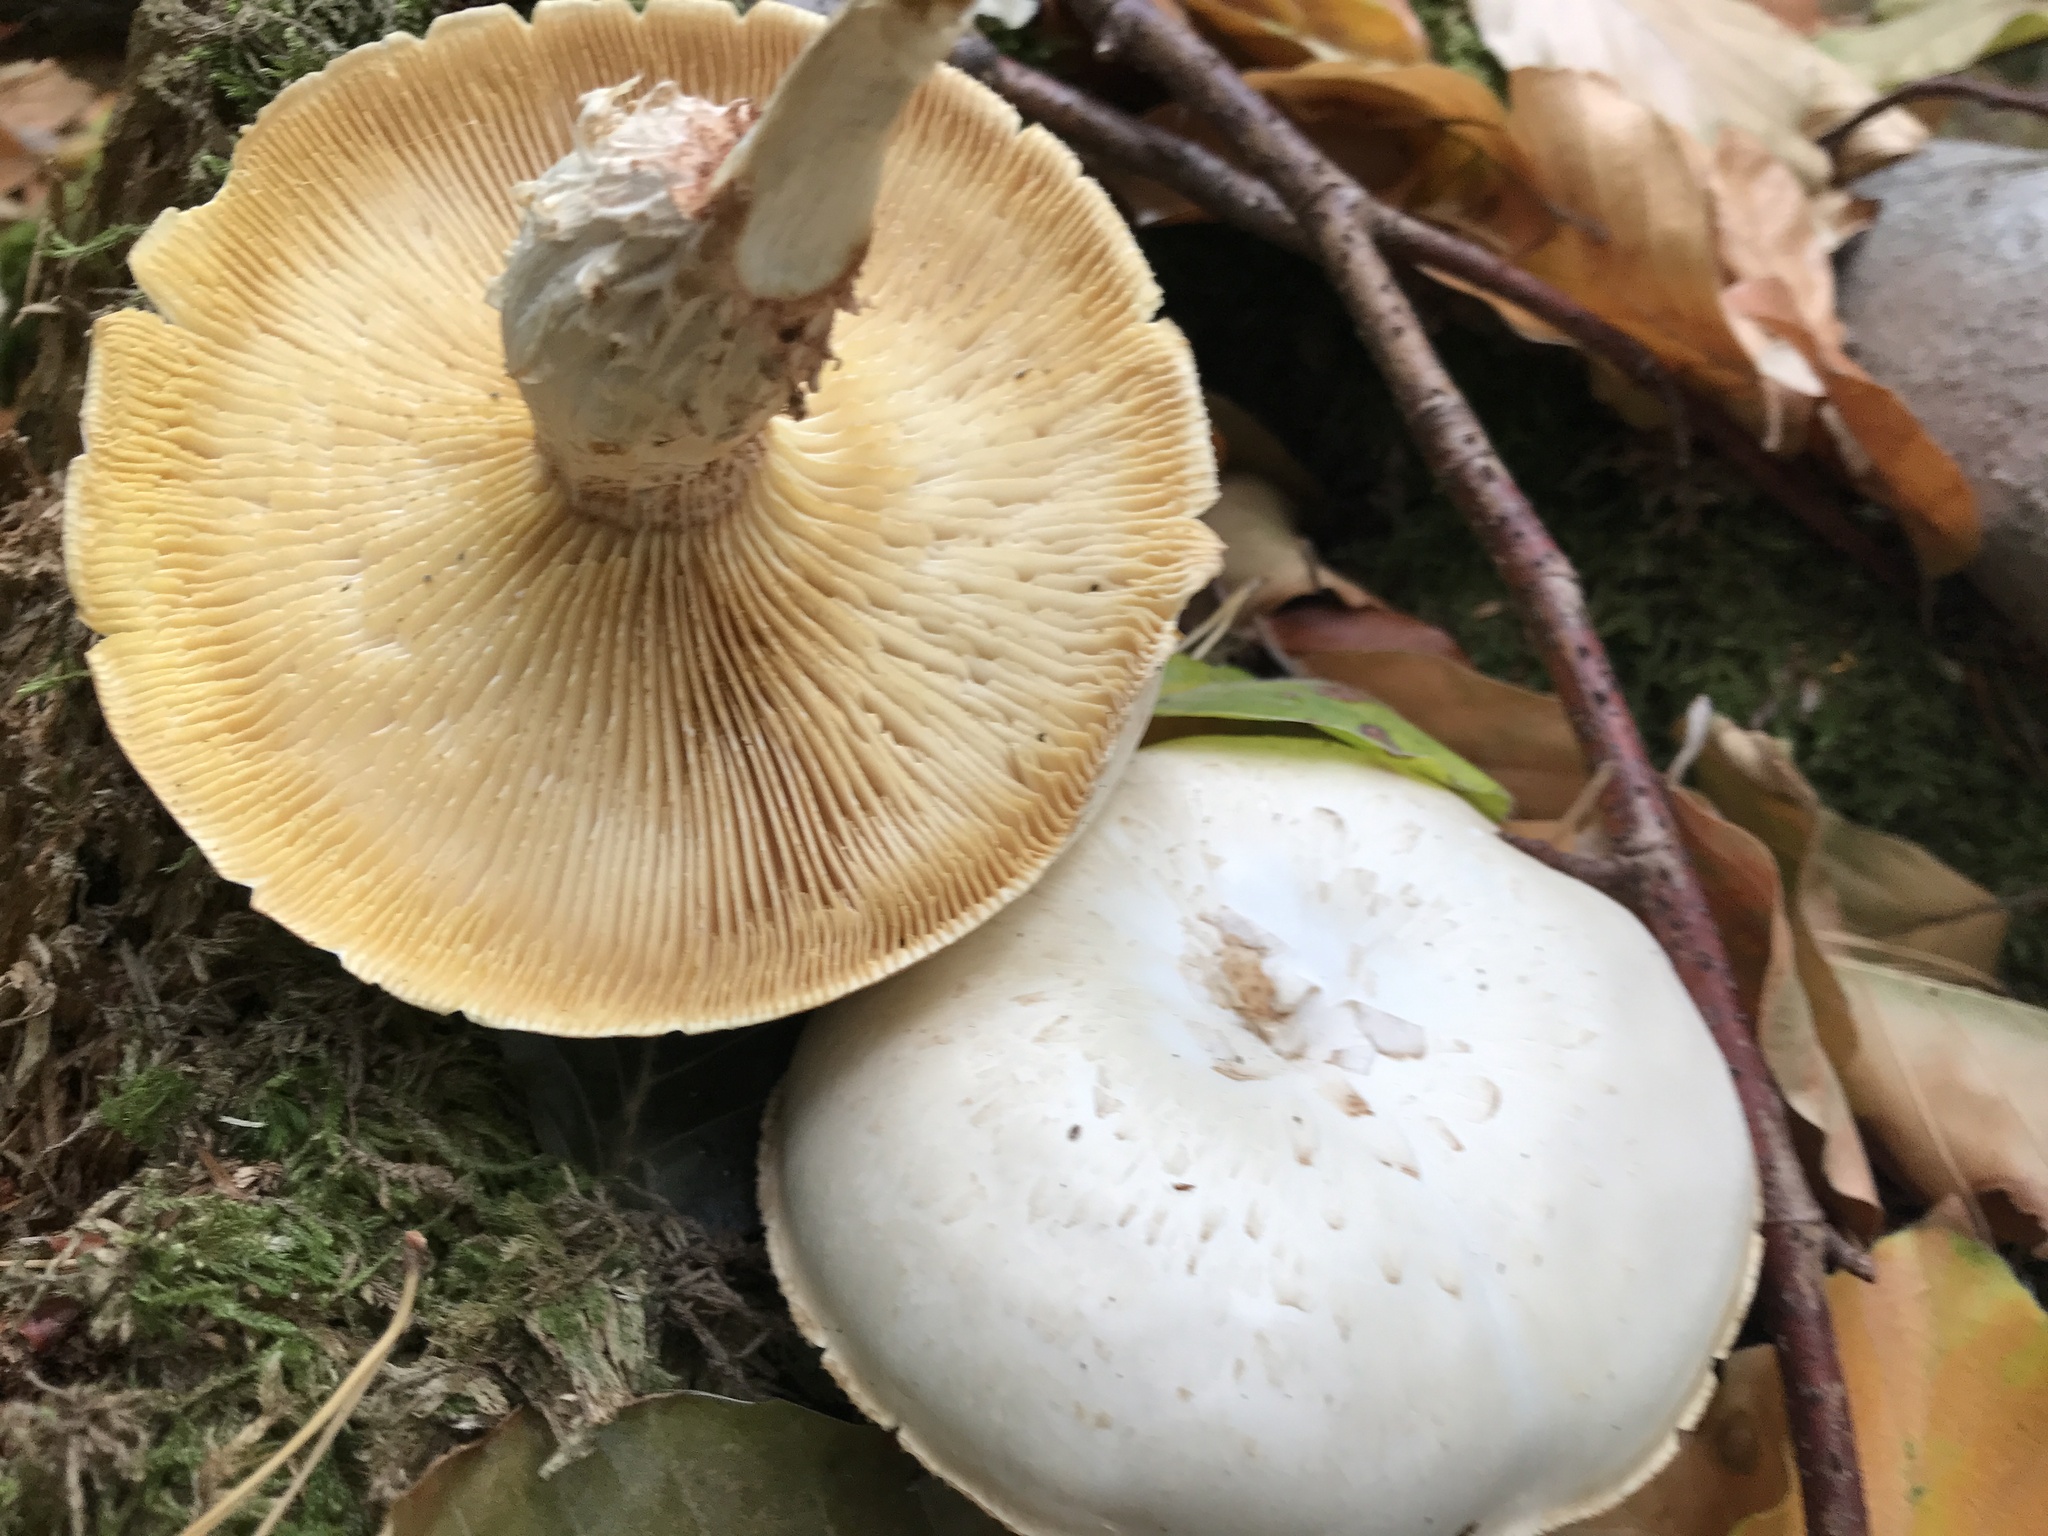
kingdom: Fungi
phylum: Basidiomycota
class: Agaricomycetes
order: Gloeophyllales
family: Gloeophyllaceae
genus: Neolentinus
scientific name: Neolentinus lepideus
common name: Scaly sawgill
